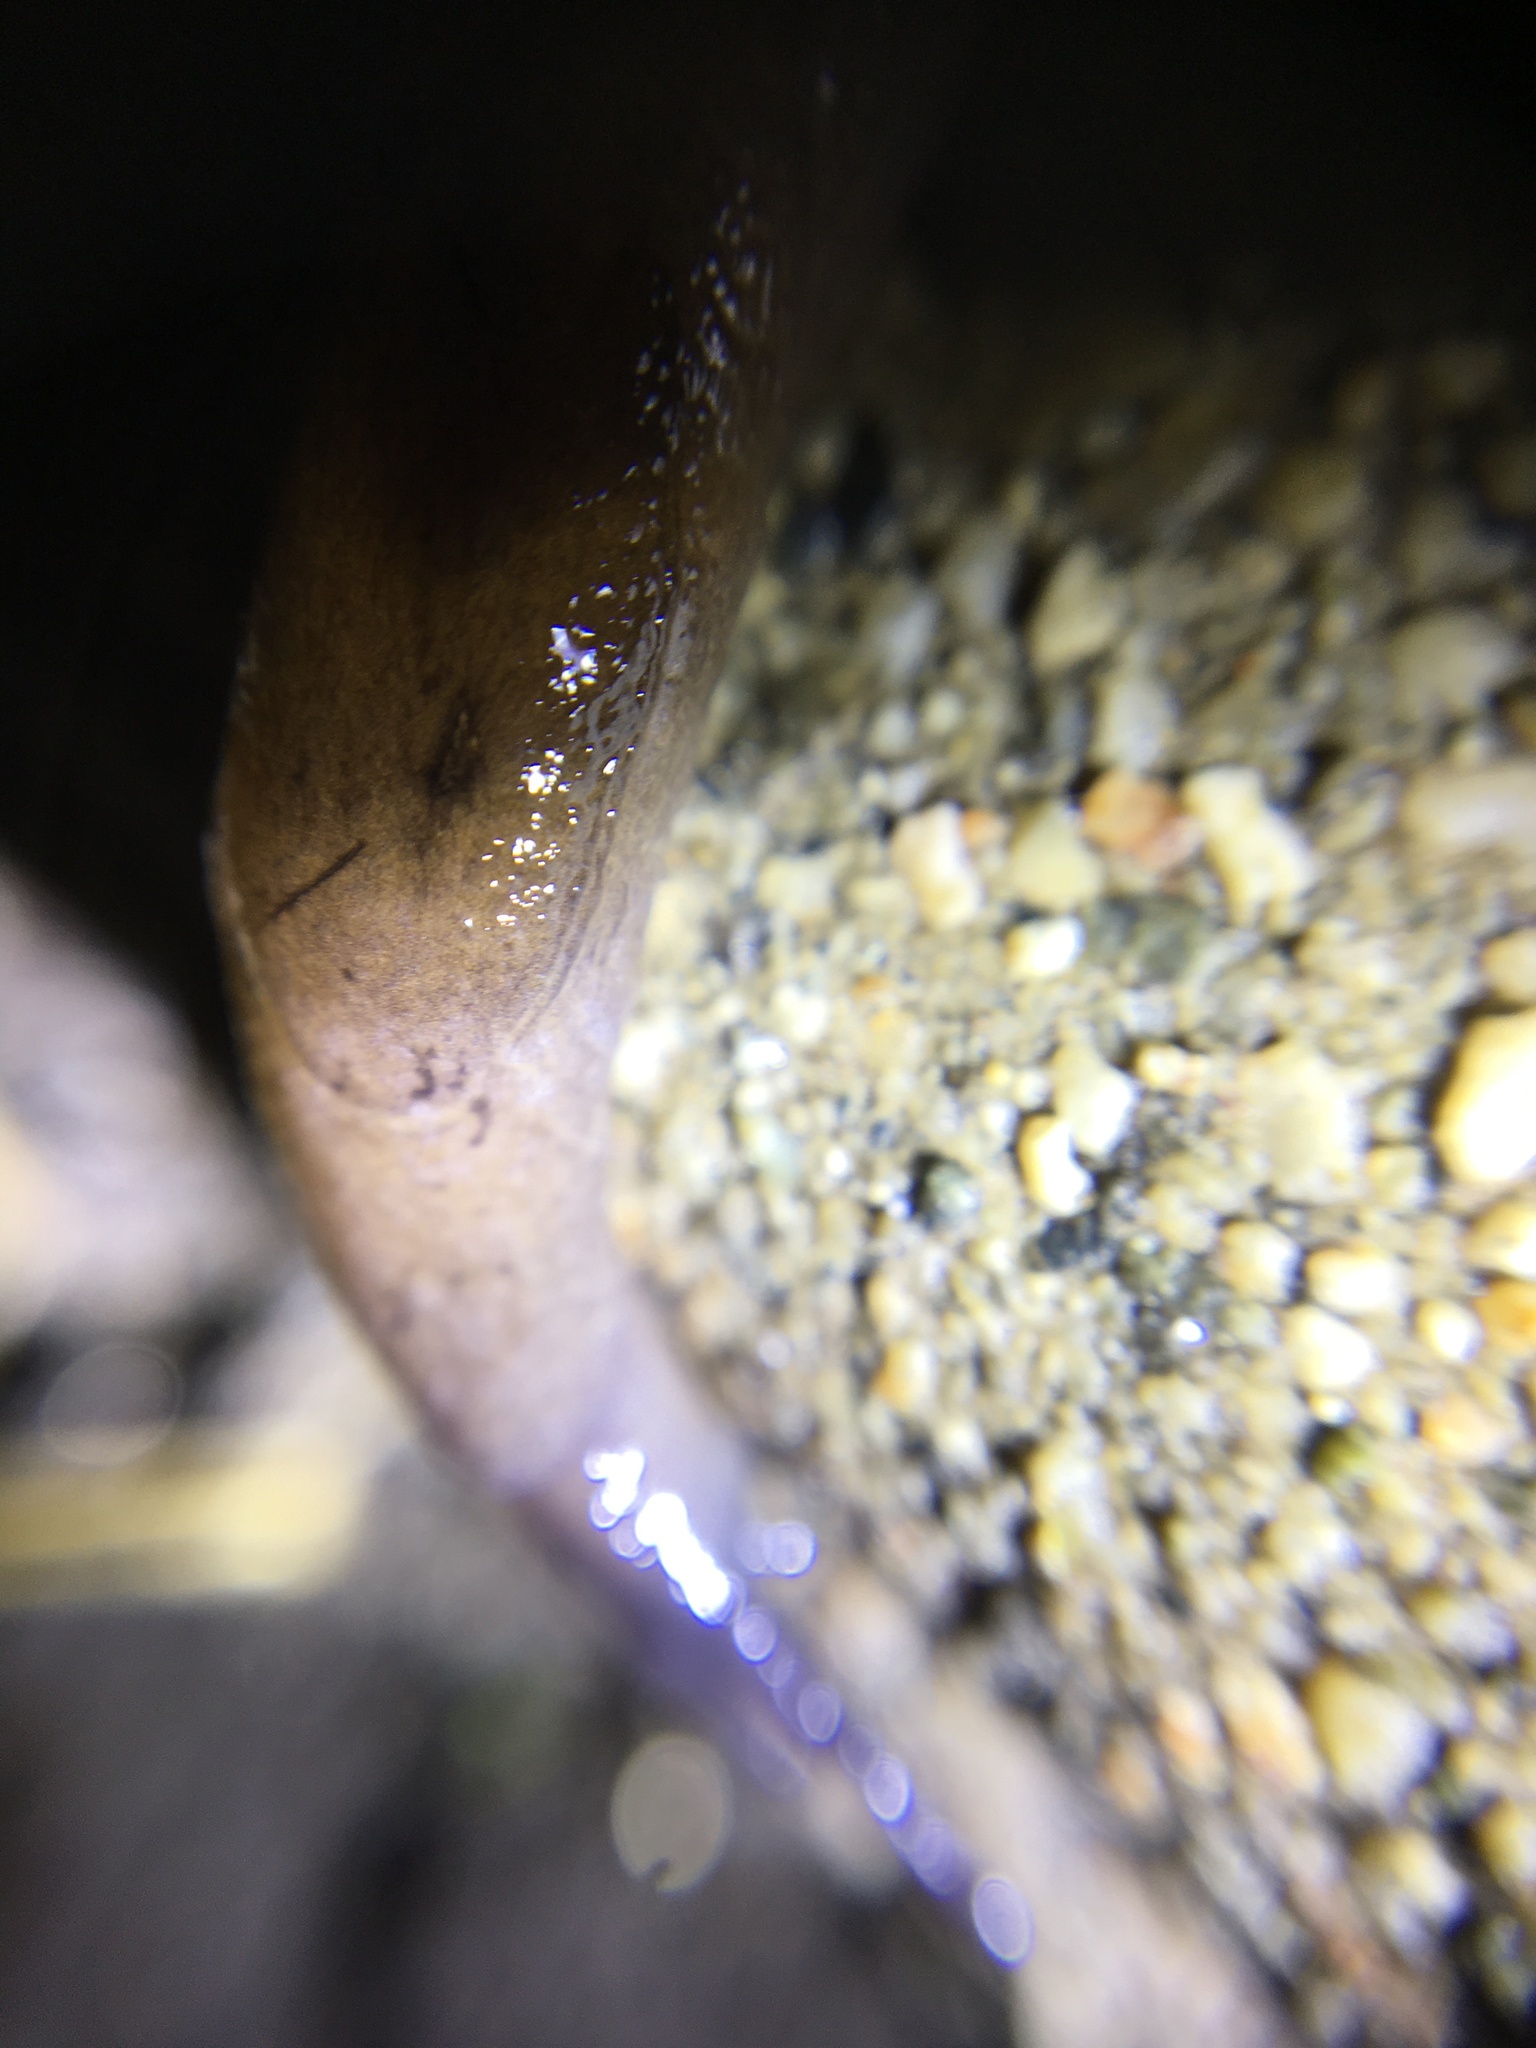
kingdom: Animalia
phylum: Mollusca
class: Gastropoda
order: Stylommatophora
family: Milacidae
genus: Milax
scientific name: Milax gagates
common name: Greenhouse slug
